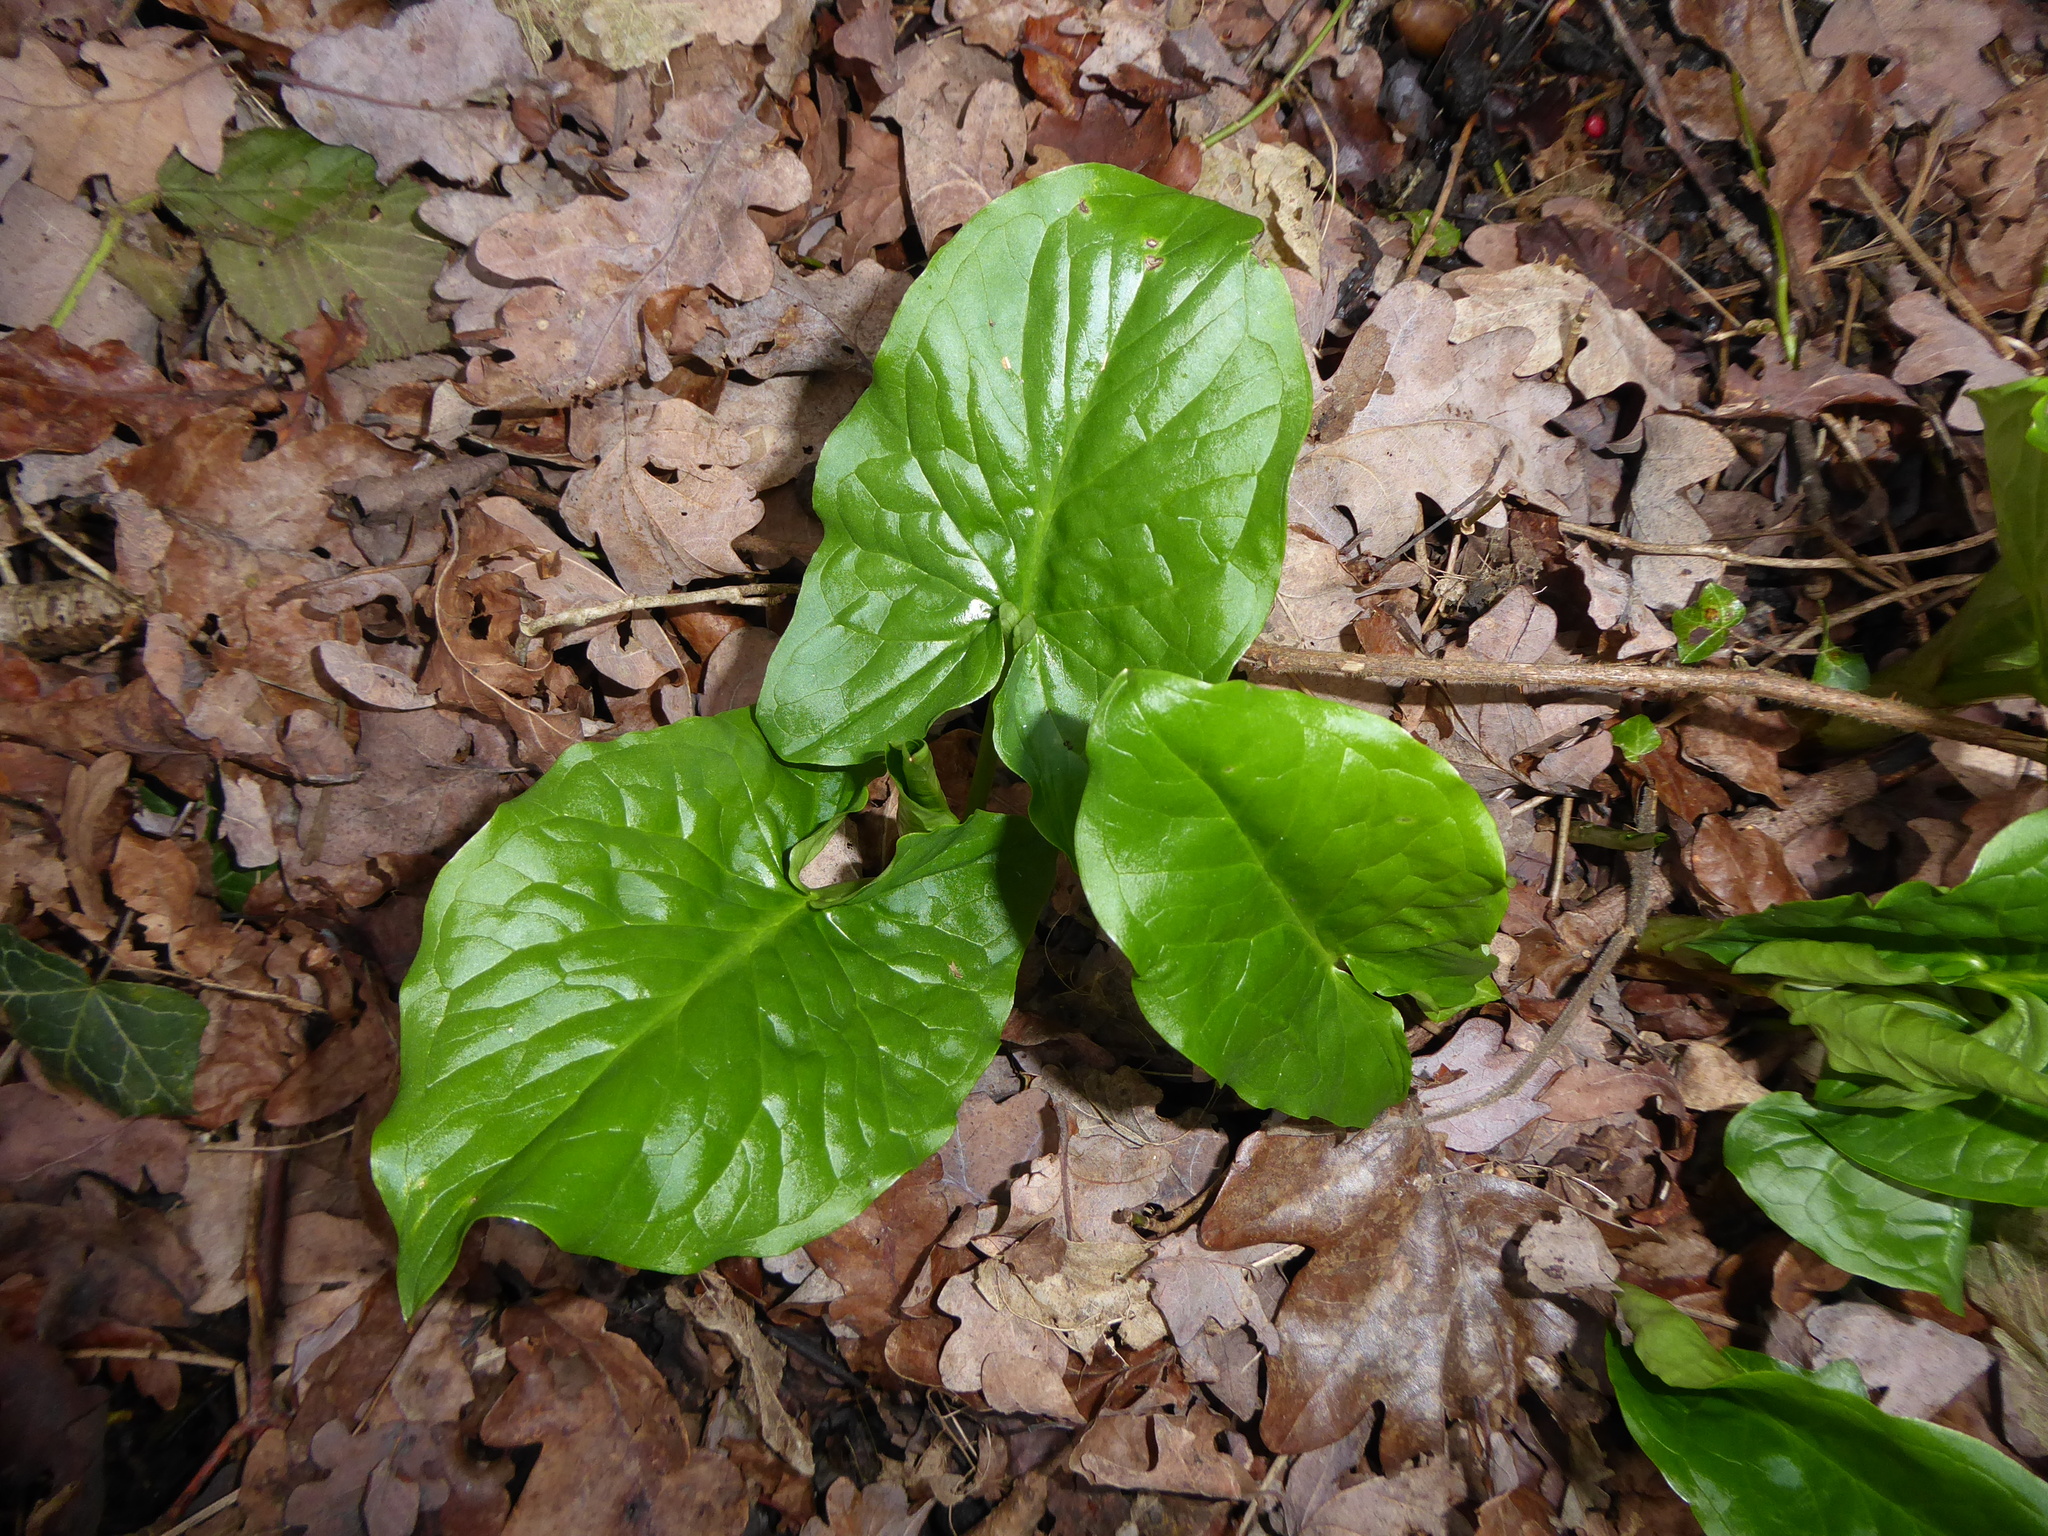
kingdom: Plantae
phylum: Tracheophyta
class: Liliopsida
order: Alismatales
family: Araceae
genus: Arum
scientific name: Arum maculatum
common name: Lords-and-ladies
